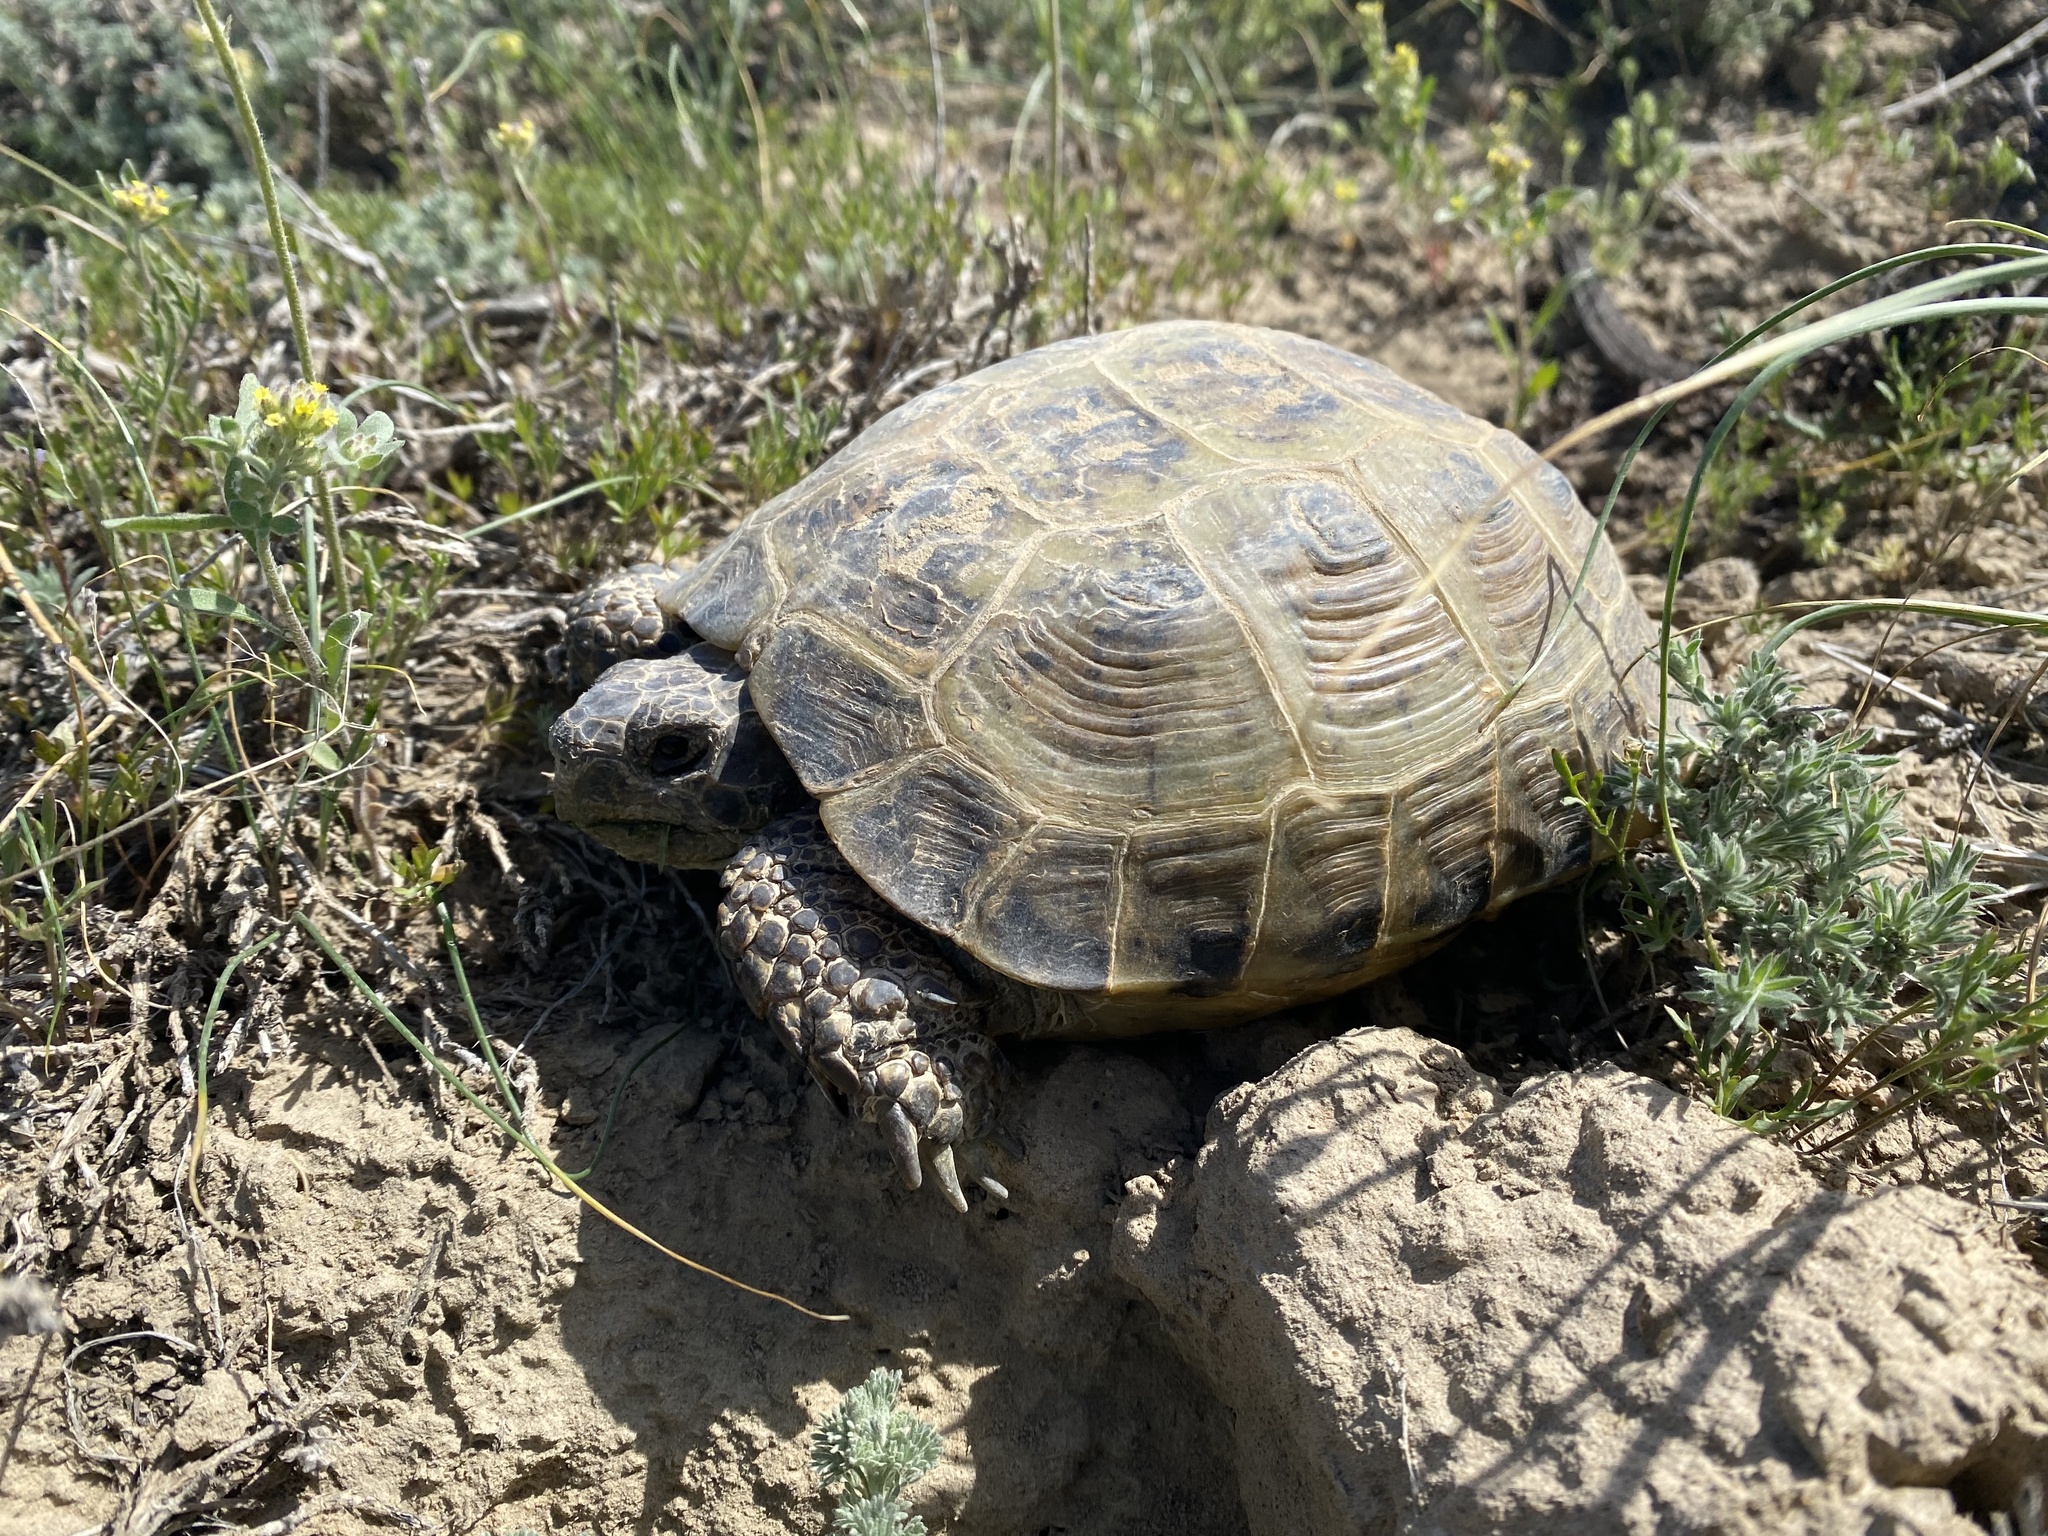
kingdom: Animalia
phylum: Chordata
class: Testudines
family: Testudinidae
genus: Testudo
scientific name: Testudo horsfieldii
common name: Central asia tortoise
